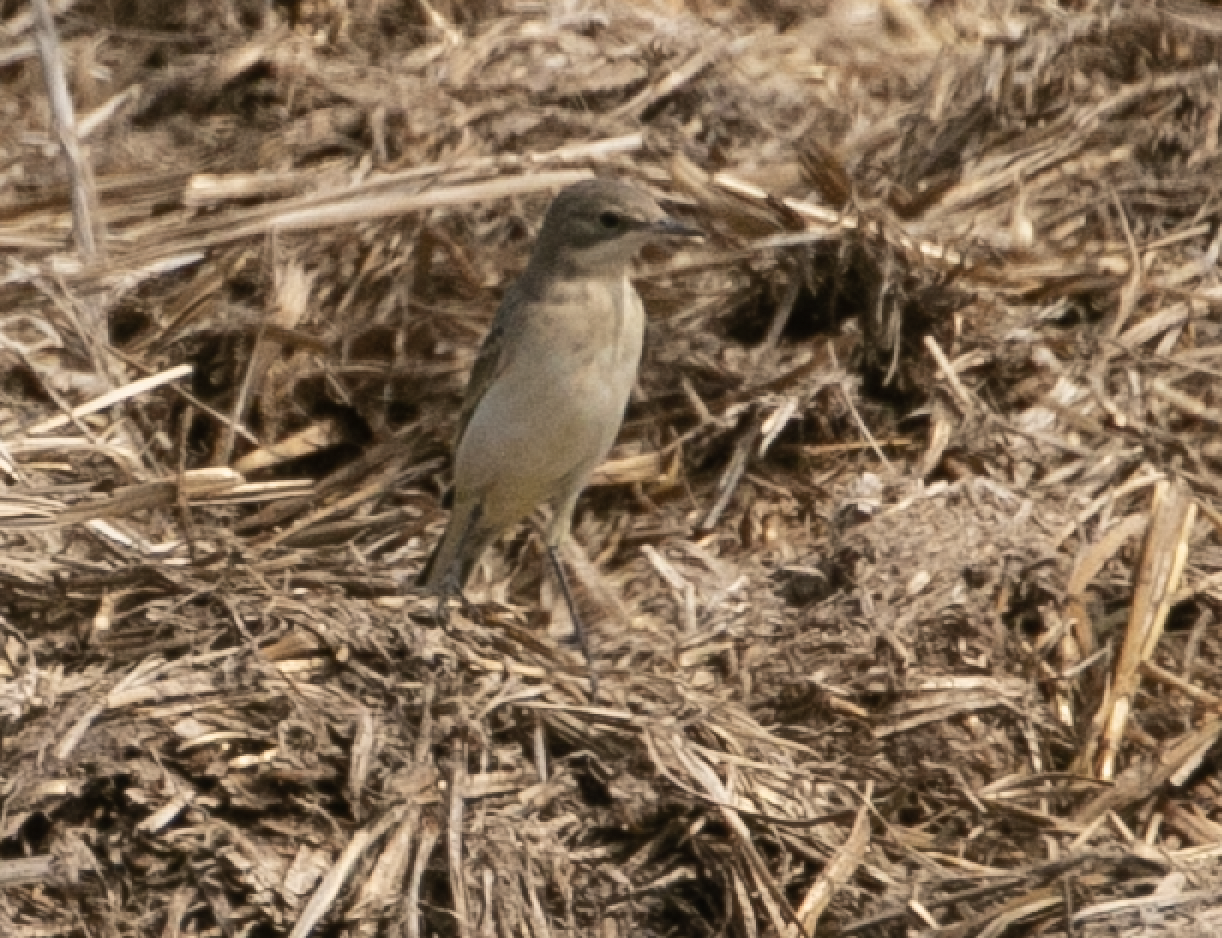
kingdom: Animalia
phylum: Chordata
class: Aves
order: Passeriformes
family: Motacillidae
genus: Motacilla
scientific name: Motacilla flava
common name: Western yellow wagtail
